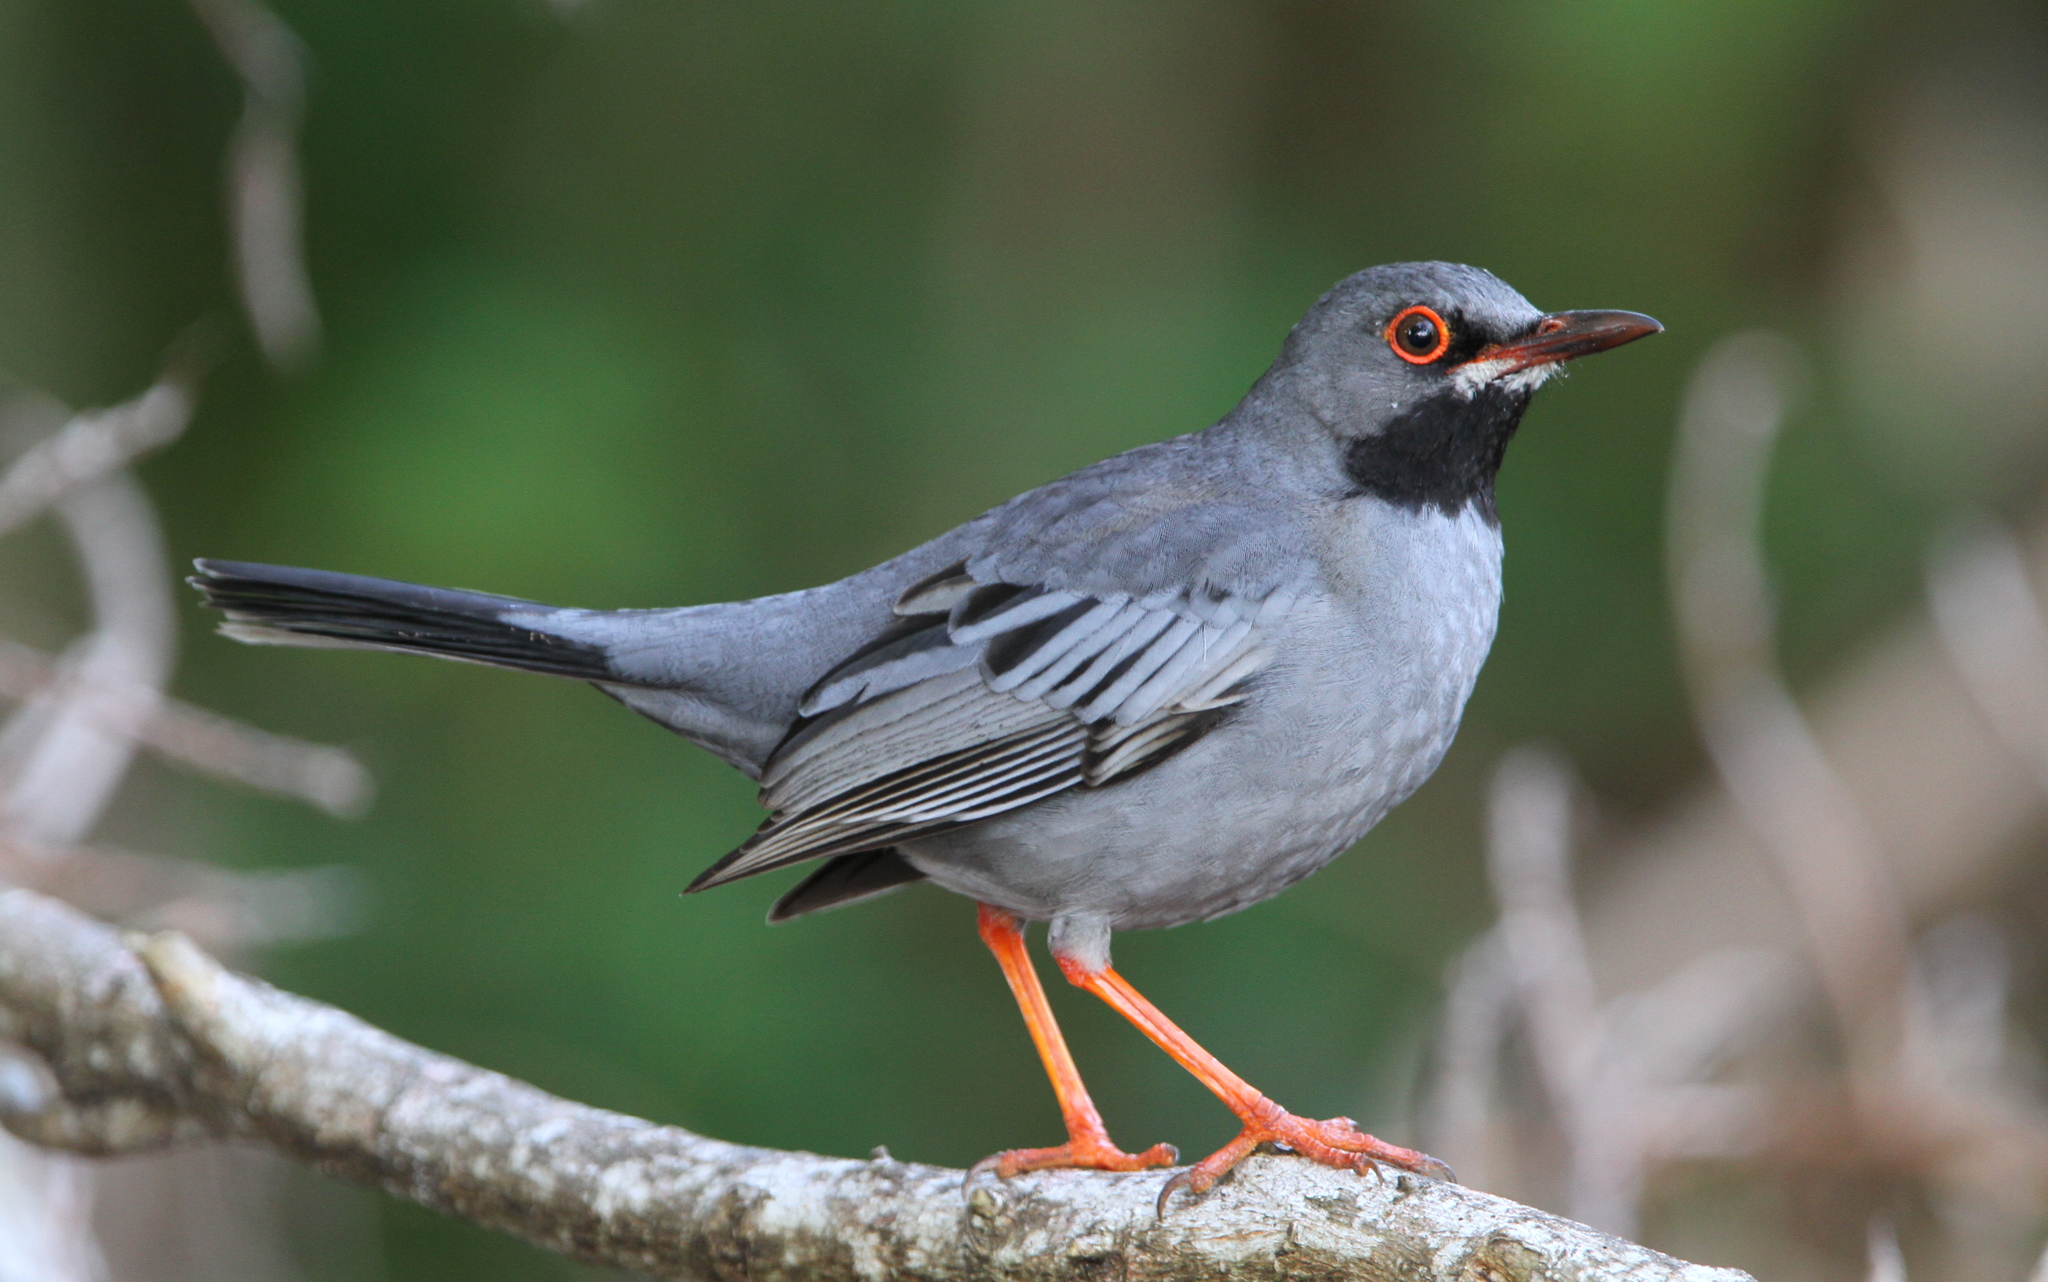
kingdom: Animalia
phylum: Chordata
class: Aves
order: Passeriformes
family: Turdidae
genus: Turdus
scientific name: Turdus plumbeus
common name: Red-legged thrush
